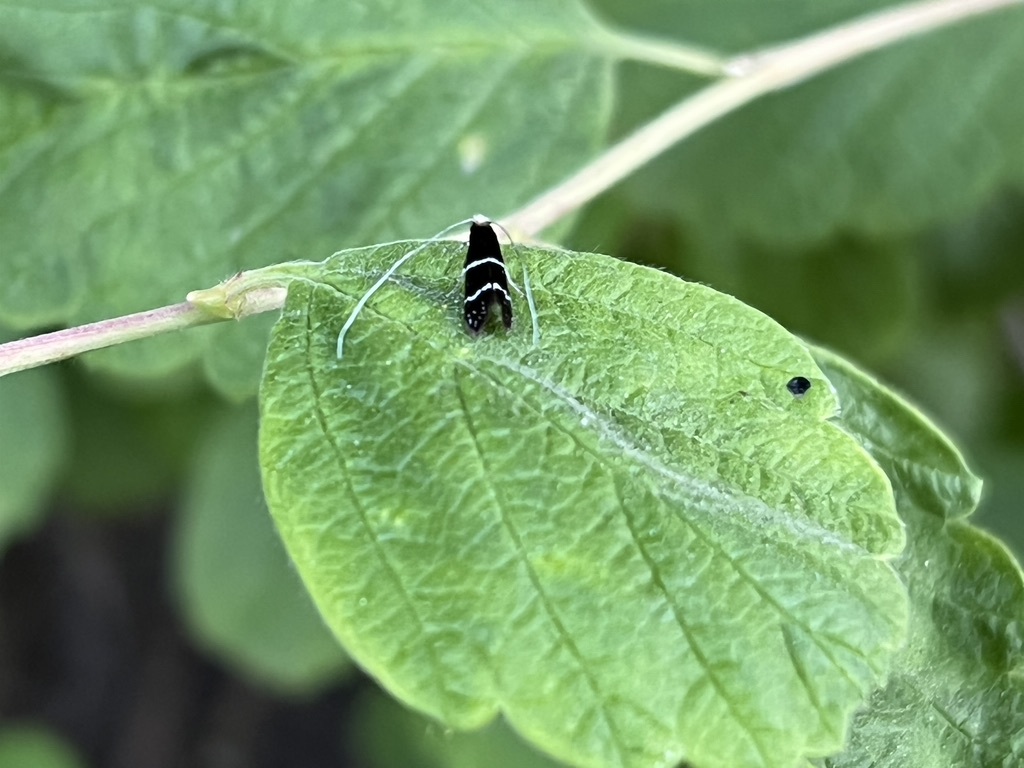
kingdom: Animalia
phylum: Arthropoda
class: Insecta
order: Lepidoptera
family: Adelidae
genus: Adela
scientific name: Adela septentrionella
